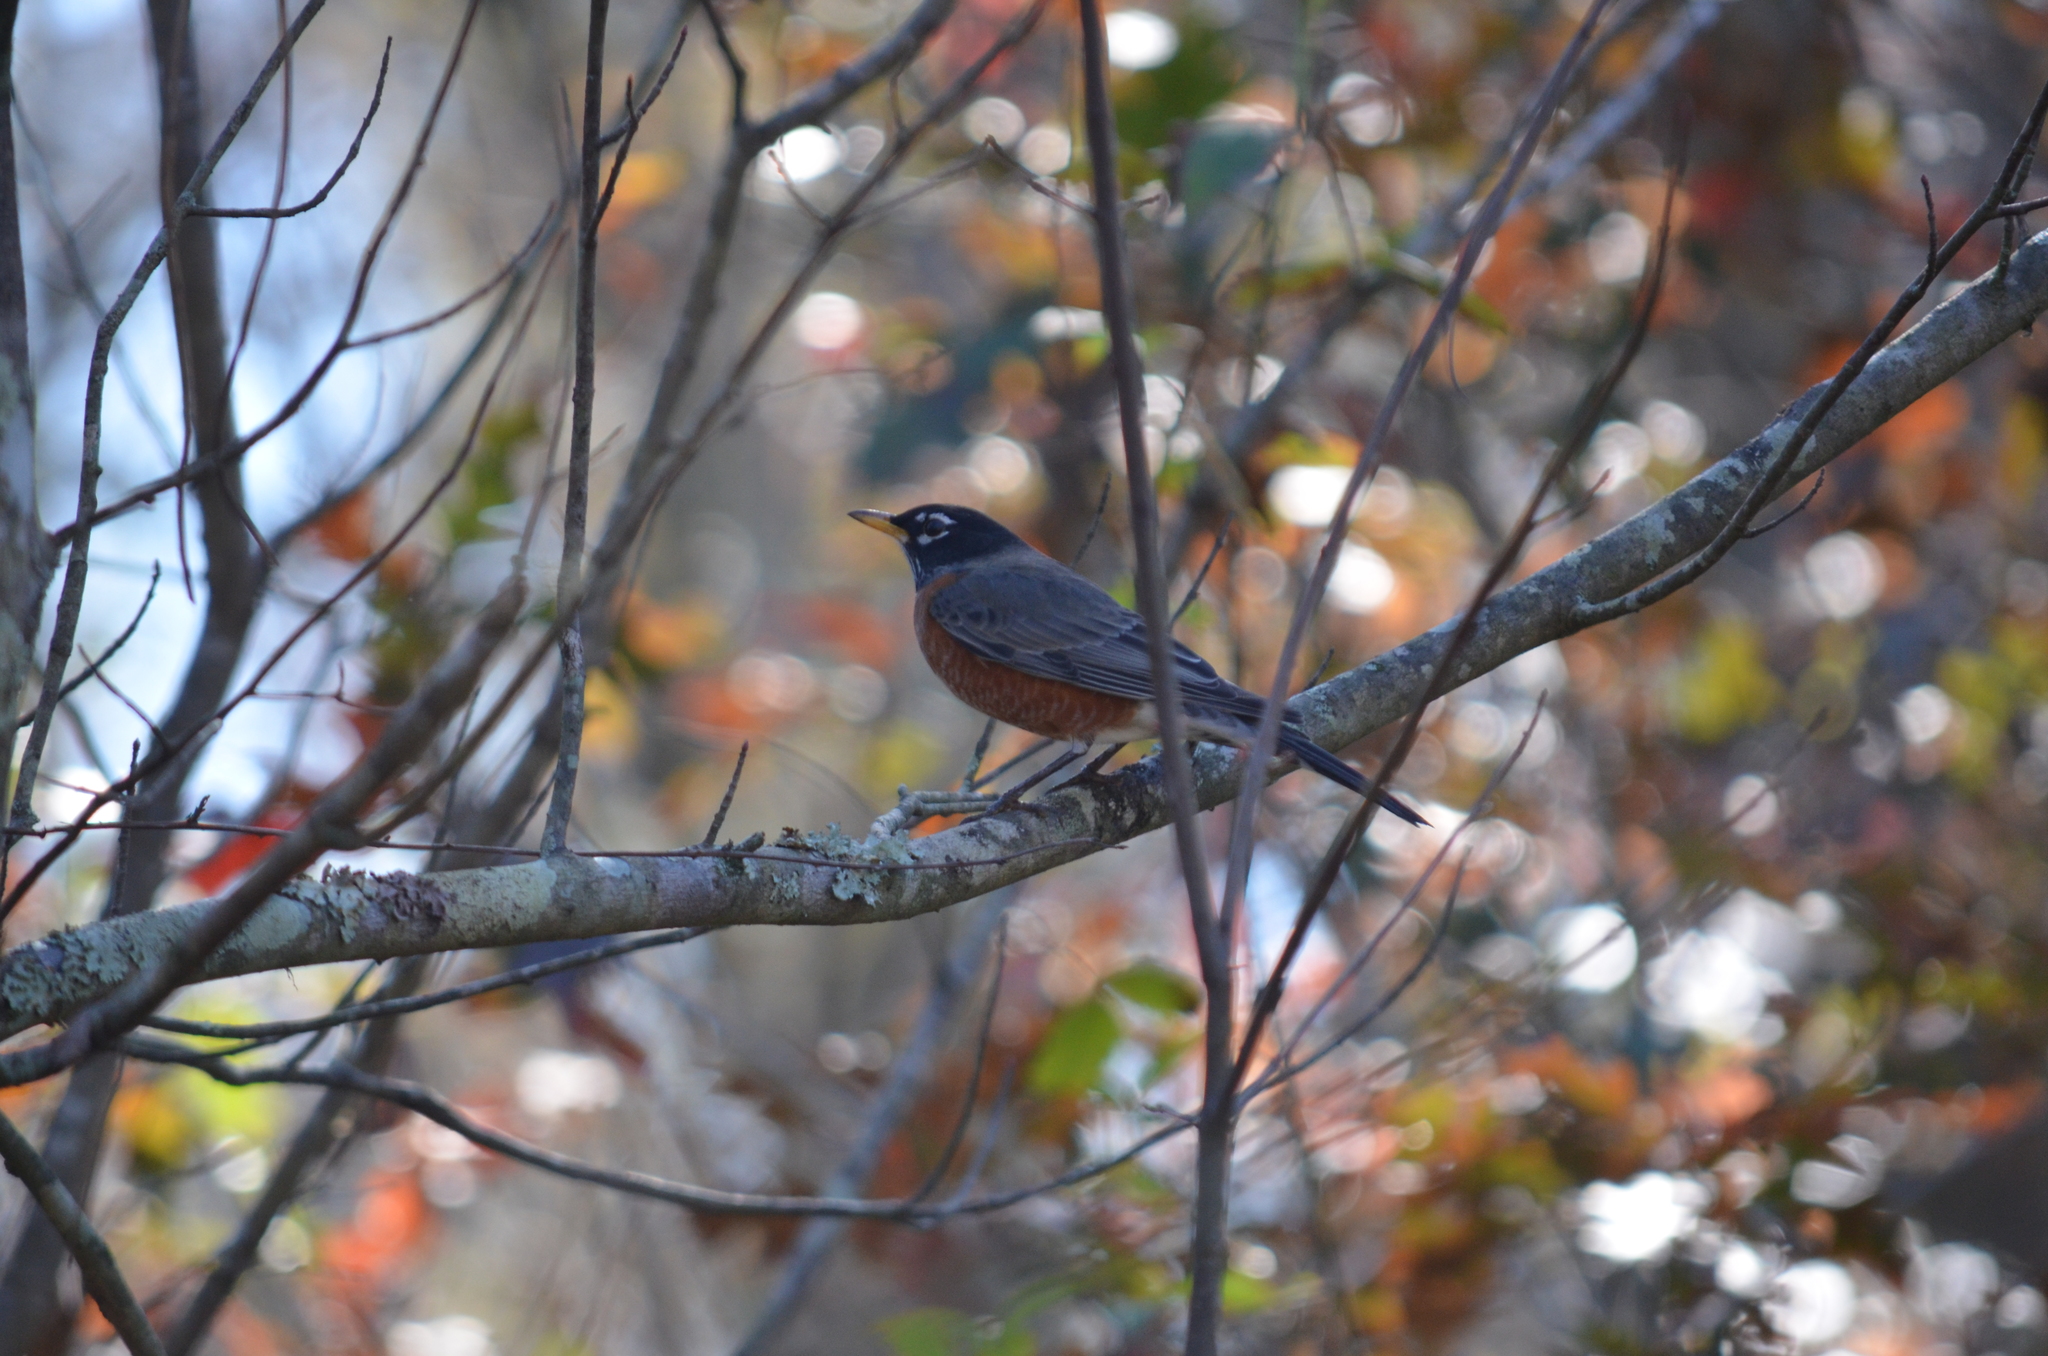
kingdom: Animalia
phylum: Chordata
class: Aves
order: Passeriformes
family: Turdidae
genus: Turdus
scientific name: Turdus migratorius
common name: American robin
